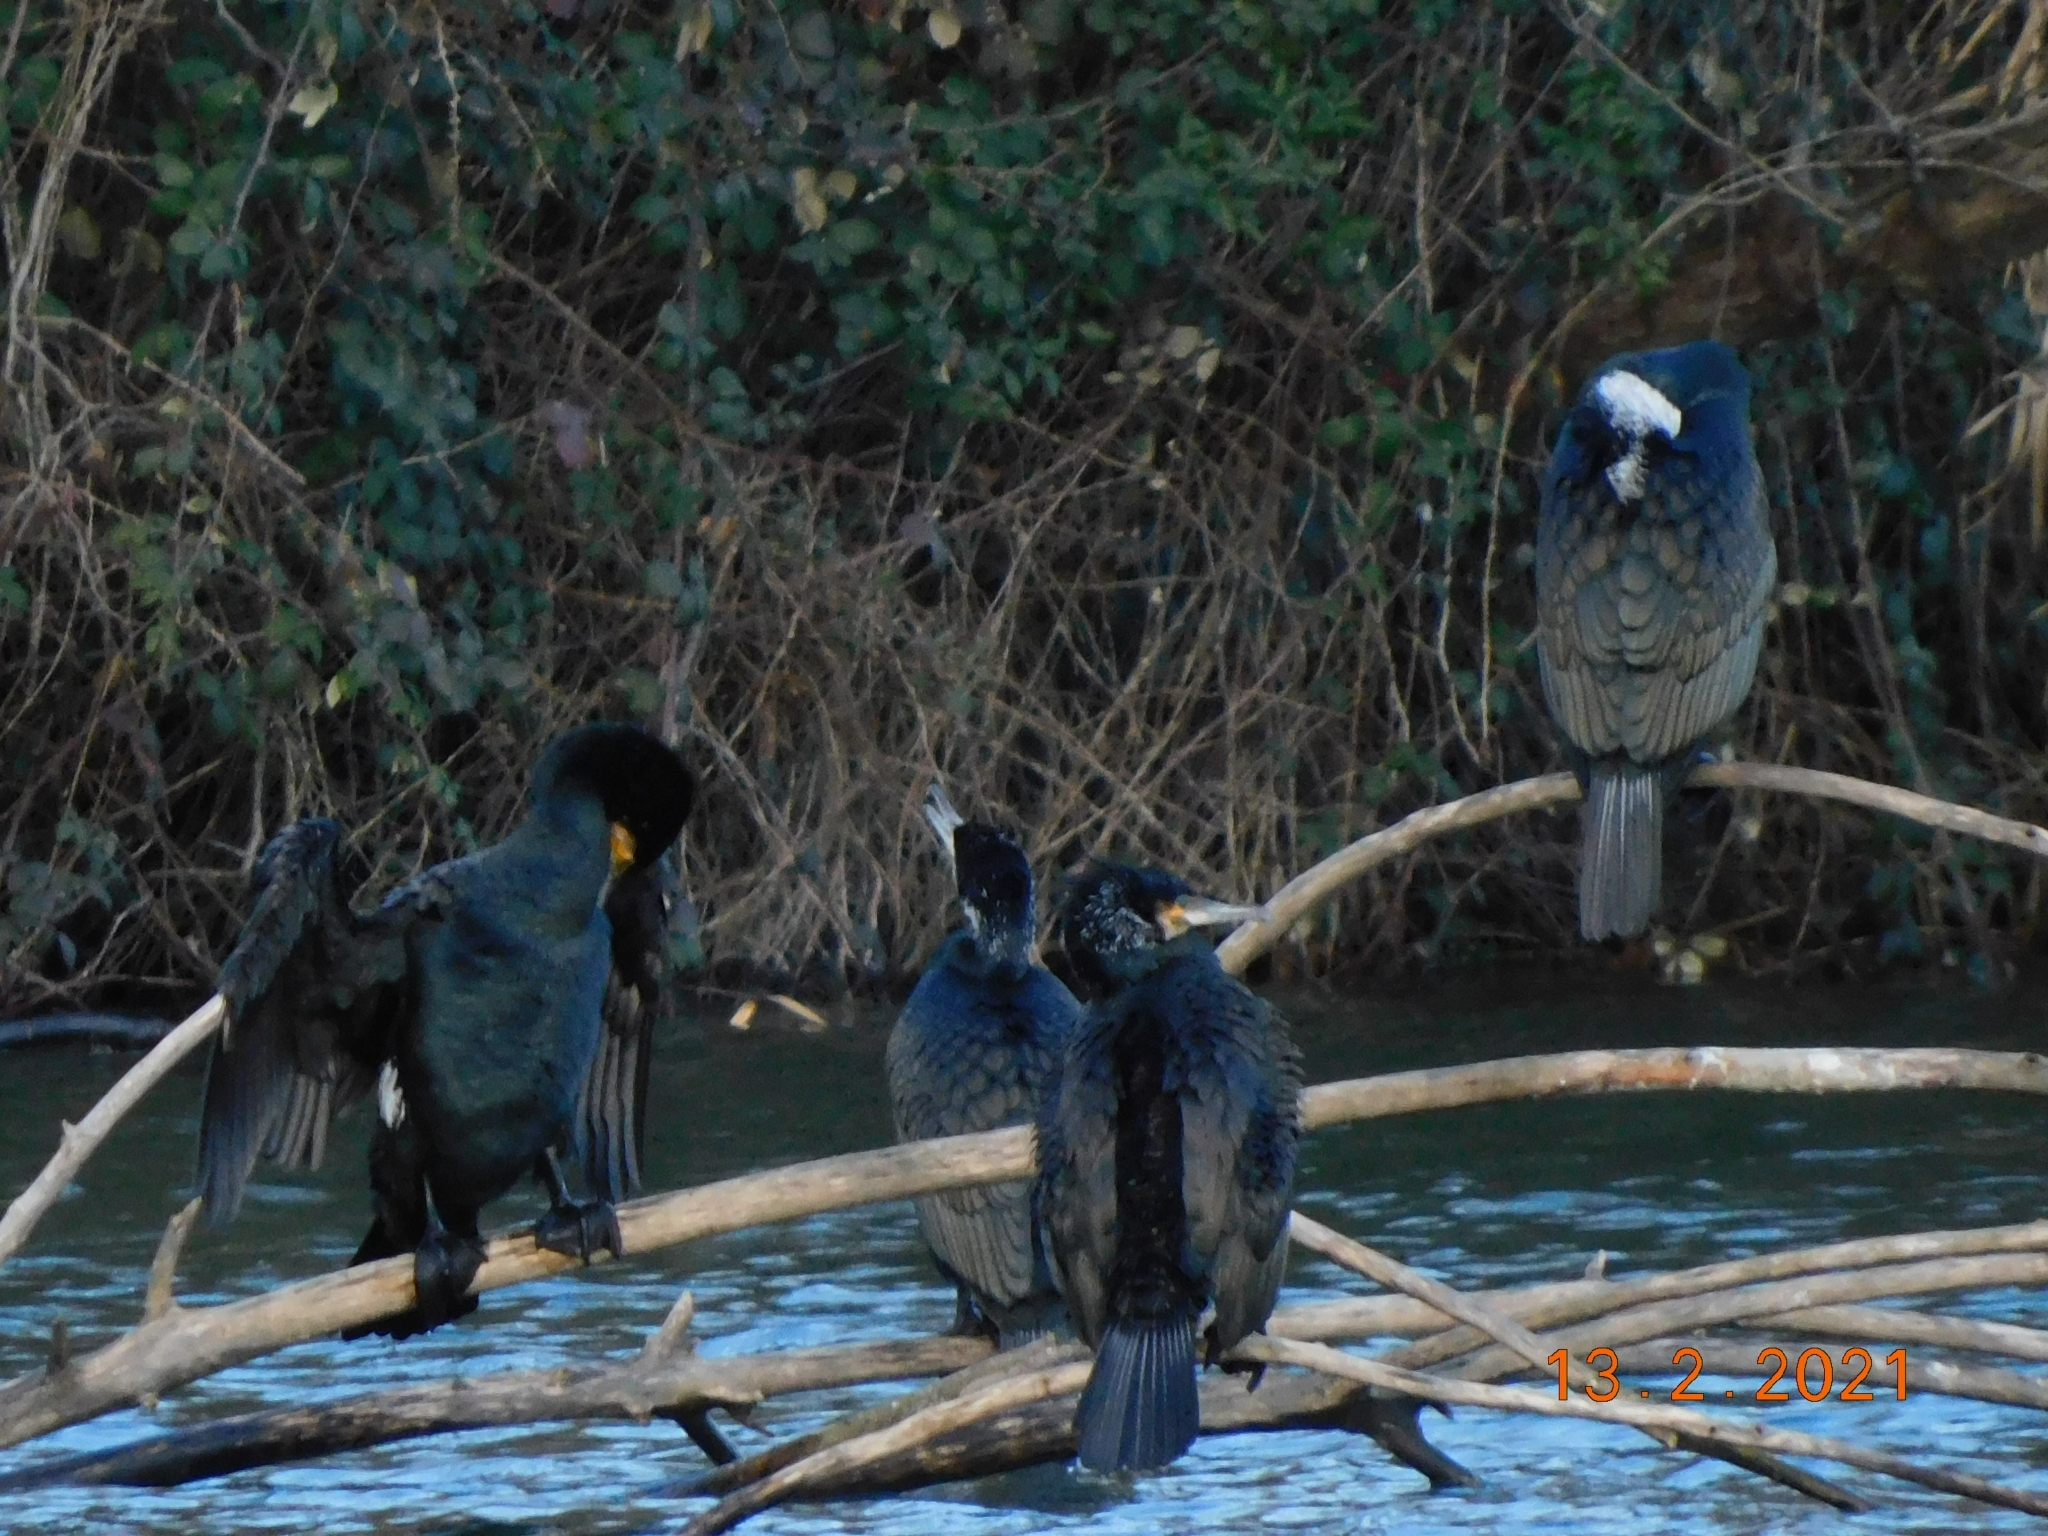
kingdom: Animalia
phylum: Chordata
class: Aves
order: Suliformes
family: Phalacrocoracidae
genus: Phalacrocorax
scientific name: Phalacrocorax carbo
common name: Great cormorant
